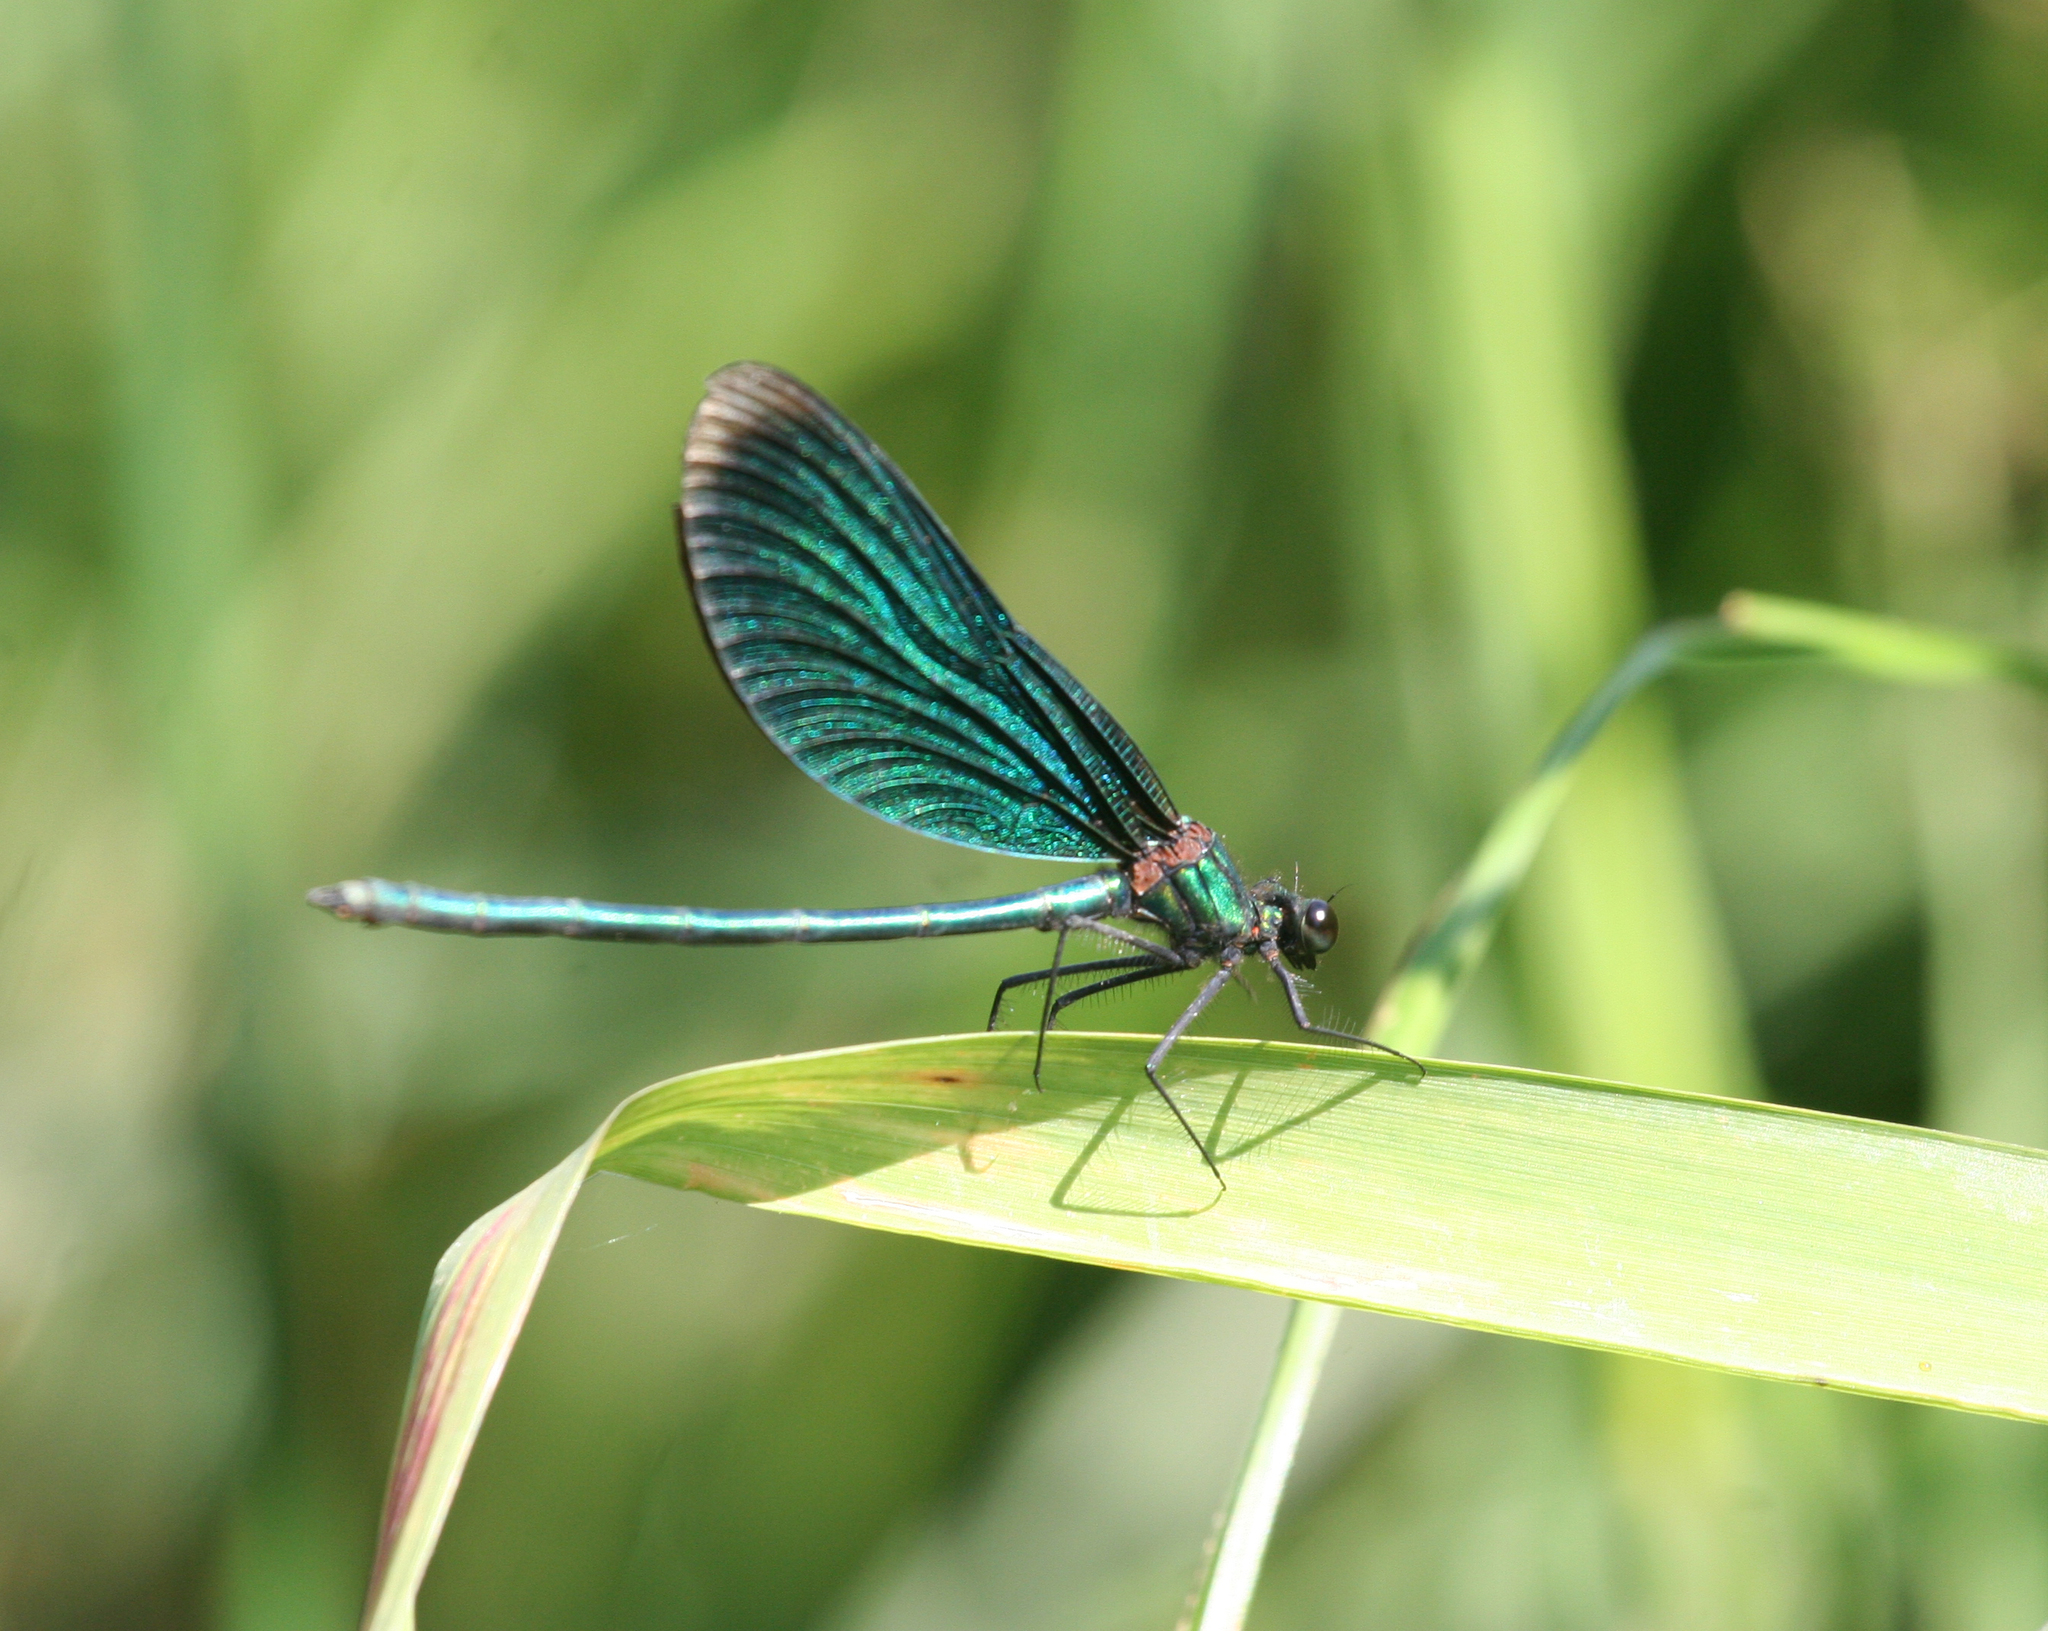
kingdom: Animalia
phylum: Arthropoda
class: Insecta
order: Odonata
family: Calopterygidae
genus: Calopteryx
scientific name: Calopteryx virgo
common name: Beautiful demoiselle
